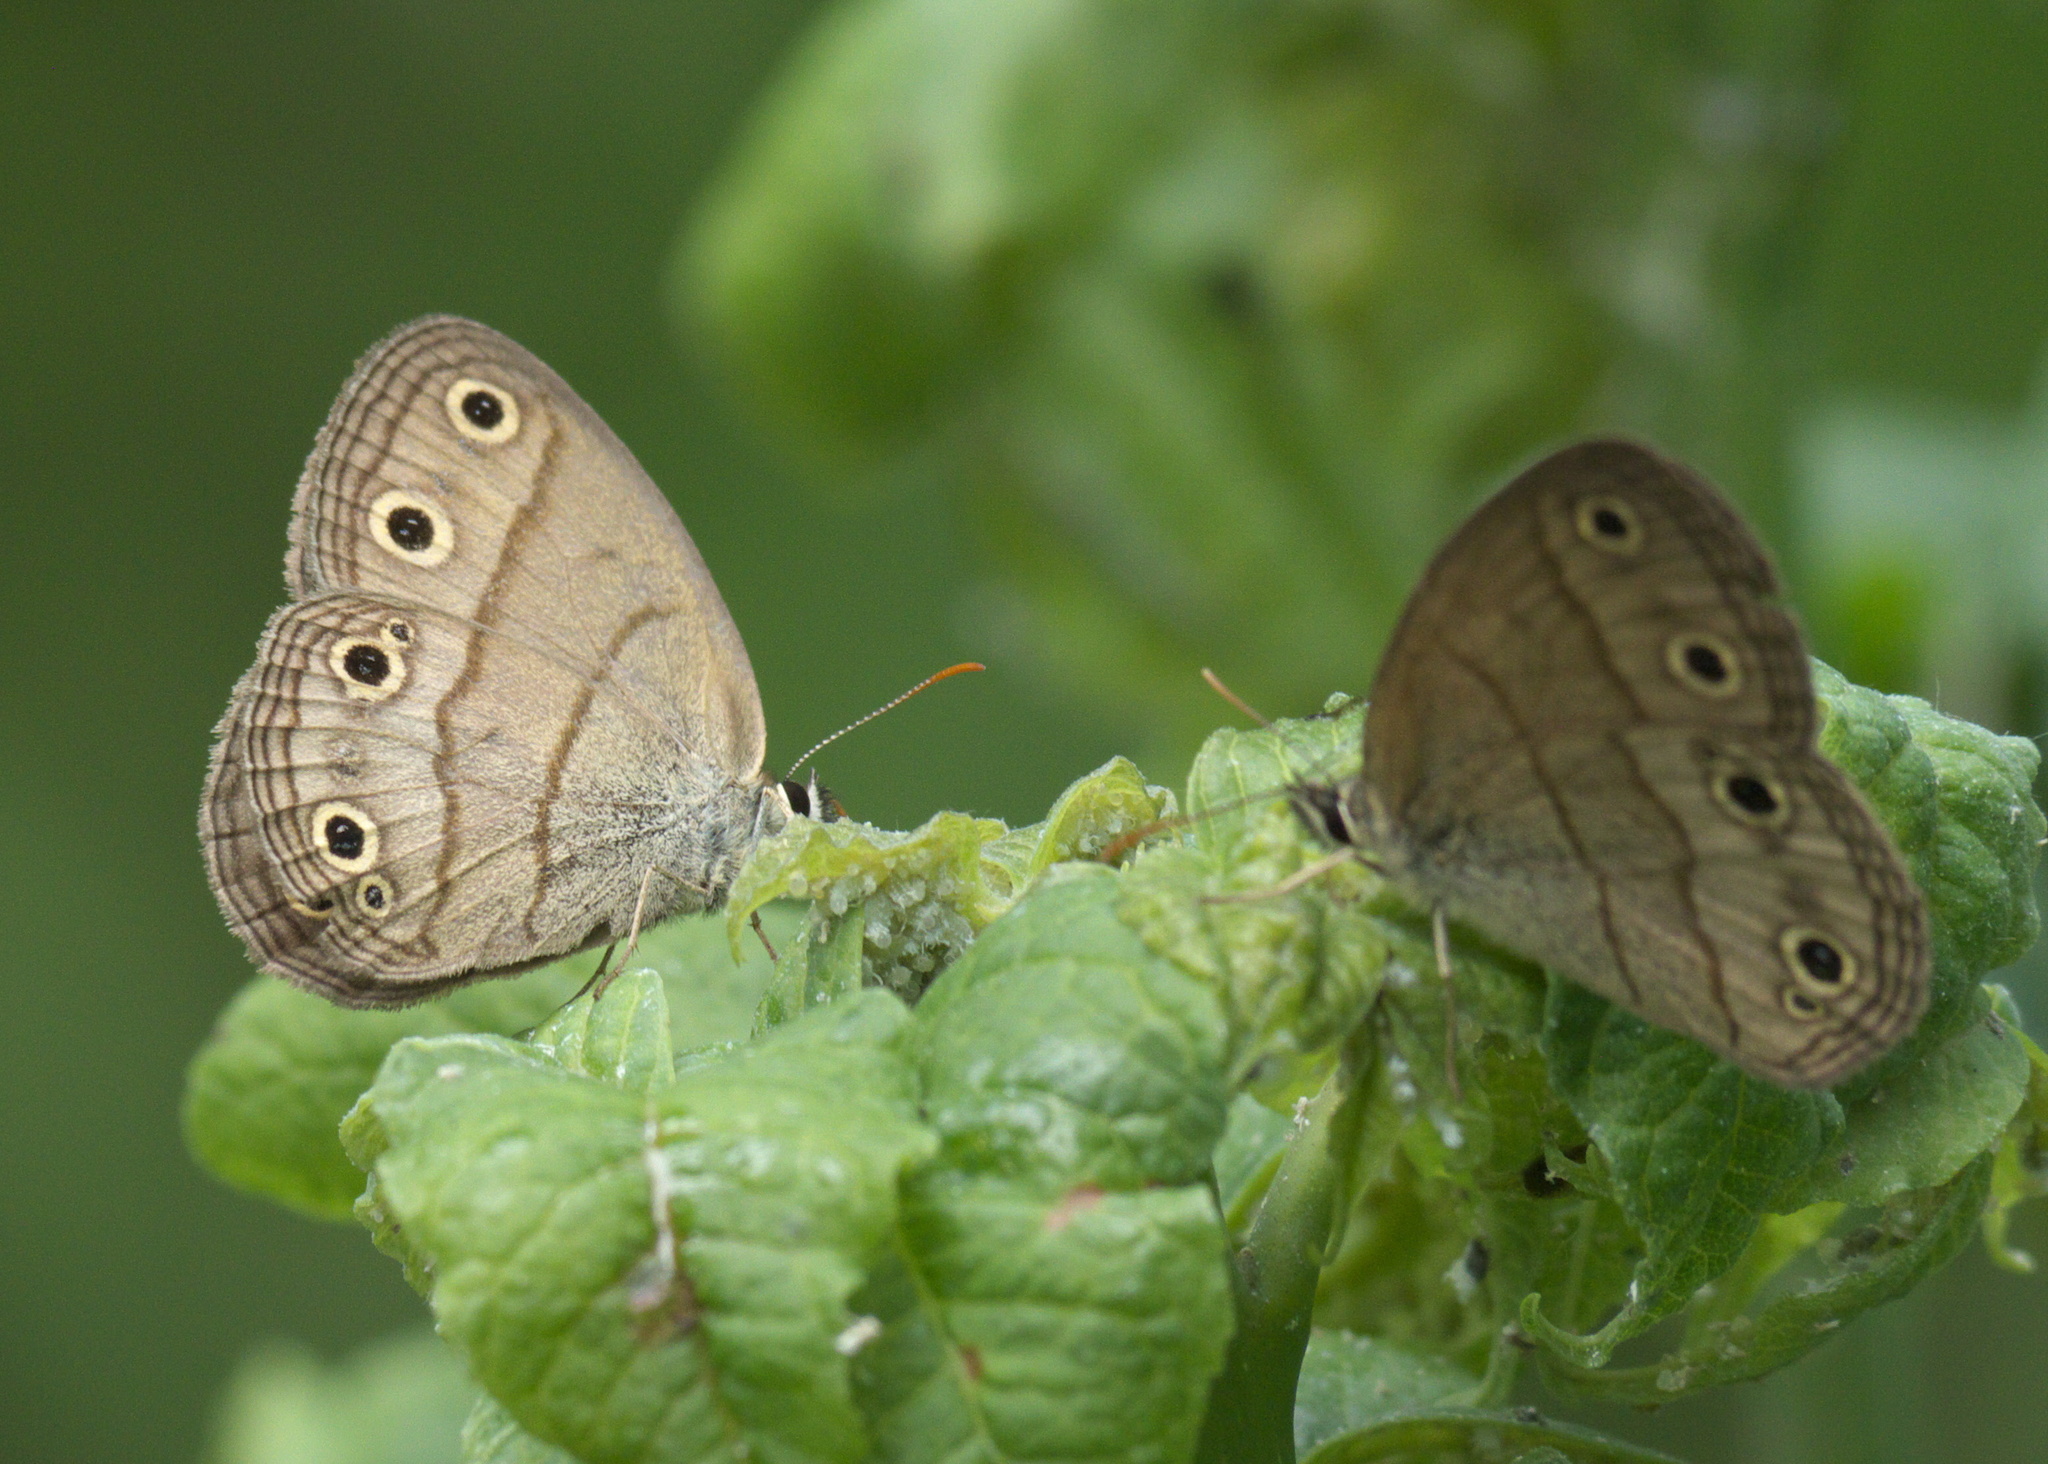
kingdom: Animalia
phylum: Arthropoda
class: Insecta
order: Lepidoptera
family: Nymphalidae
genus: Euptychia
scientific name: Euptychia cymela
